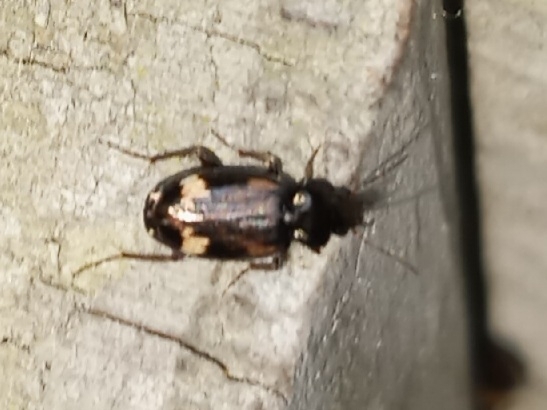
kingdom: Animalia
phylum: Arthropoda
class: Insecta
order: Coleoptera
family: Carabidae
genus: Tetragonoderus
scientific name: Tetragonoderus intersectus
